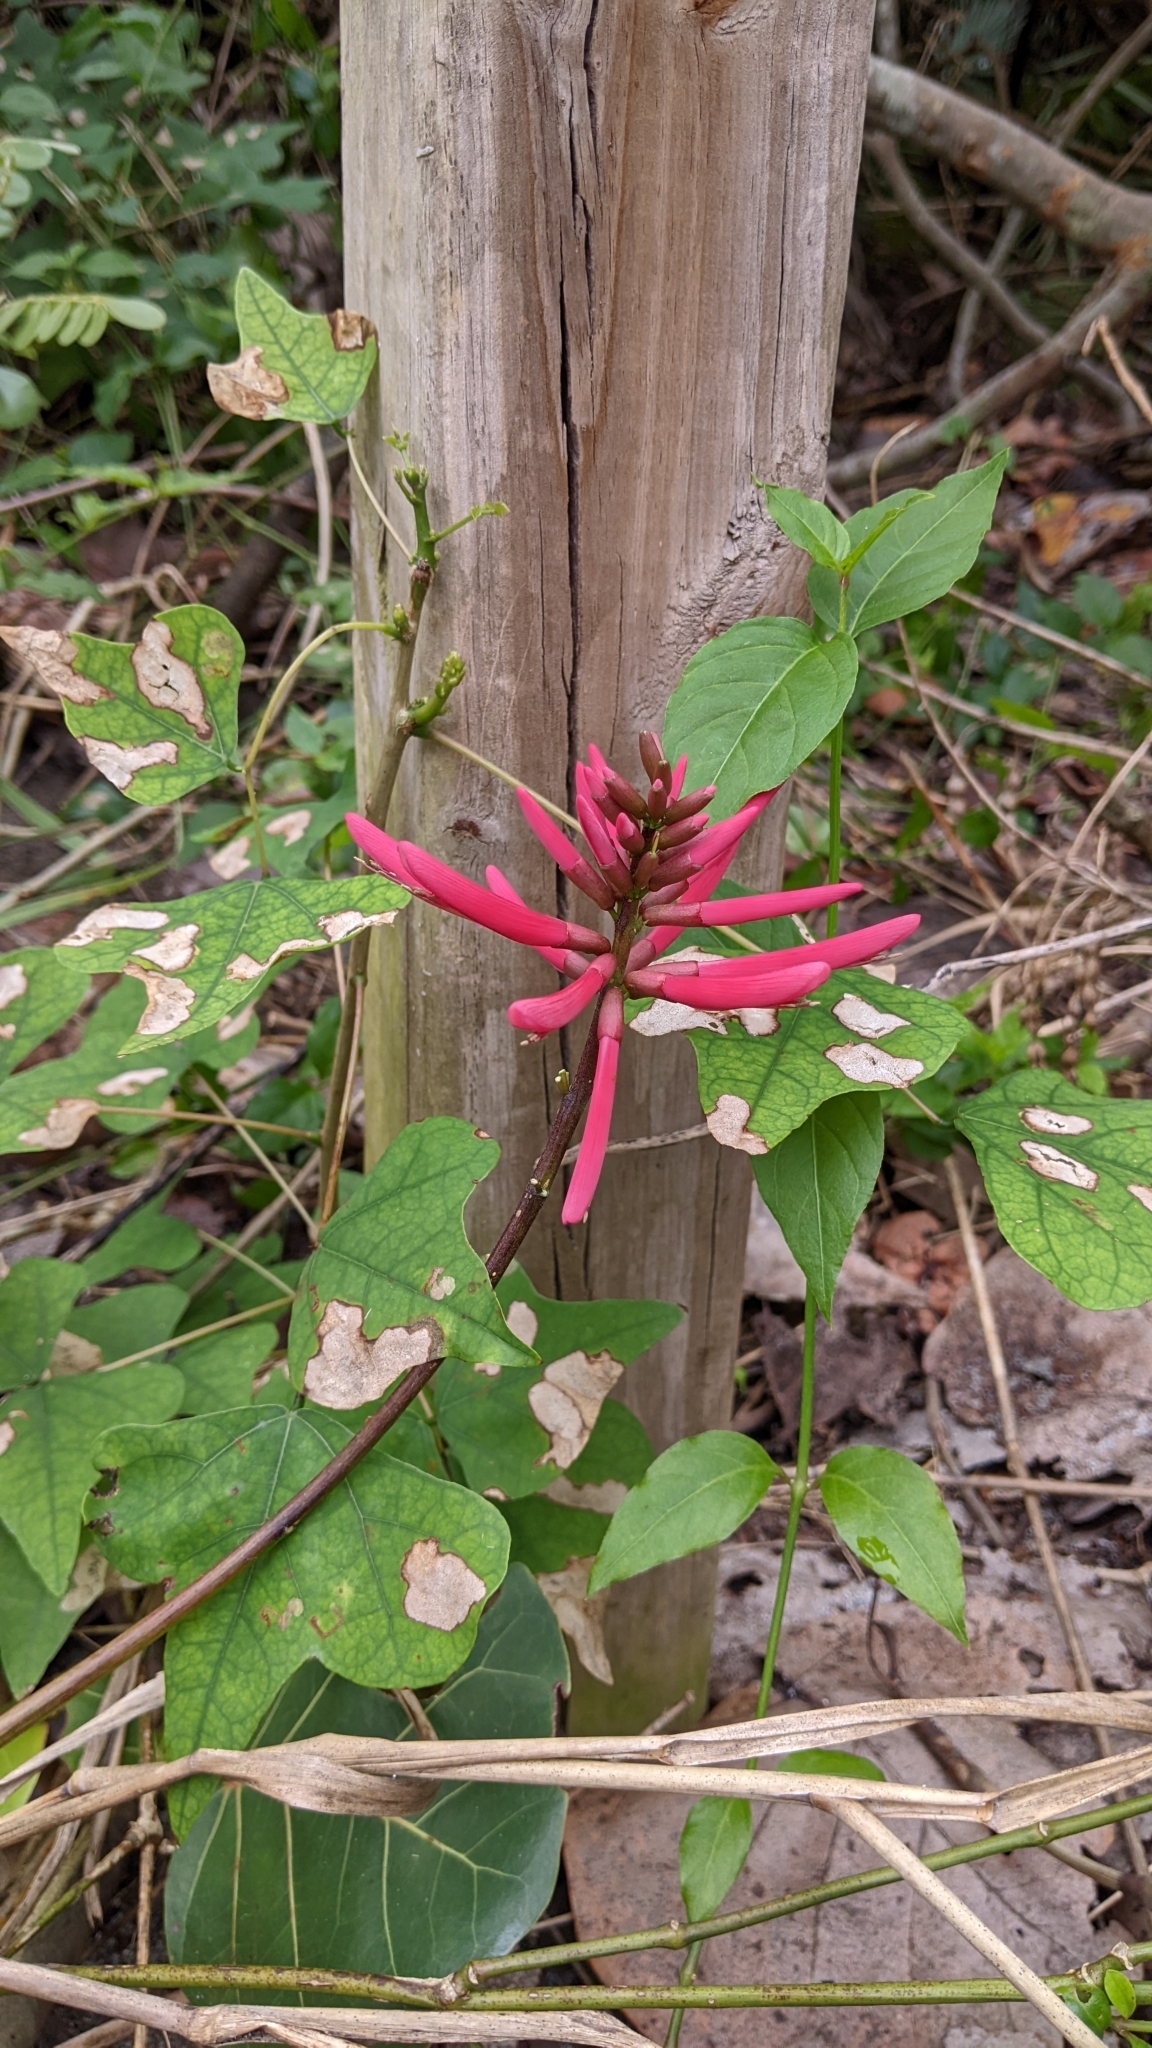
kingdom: Plantae
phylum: Tracheophyta
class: Magnoliopsida
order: Fabales
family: Fabaceae
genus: Erythrina
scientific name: Erythrina herbacea
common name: Coral-bean
